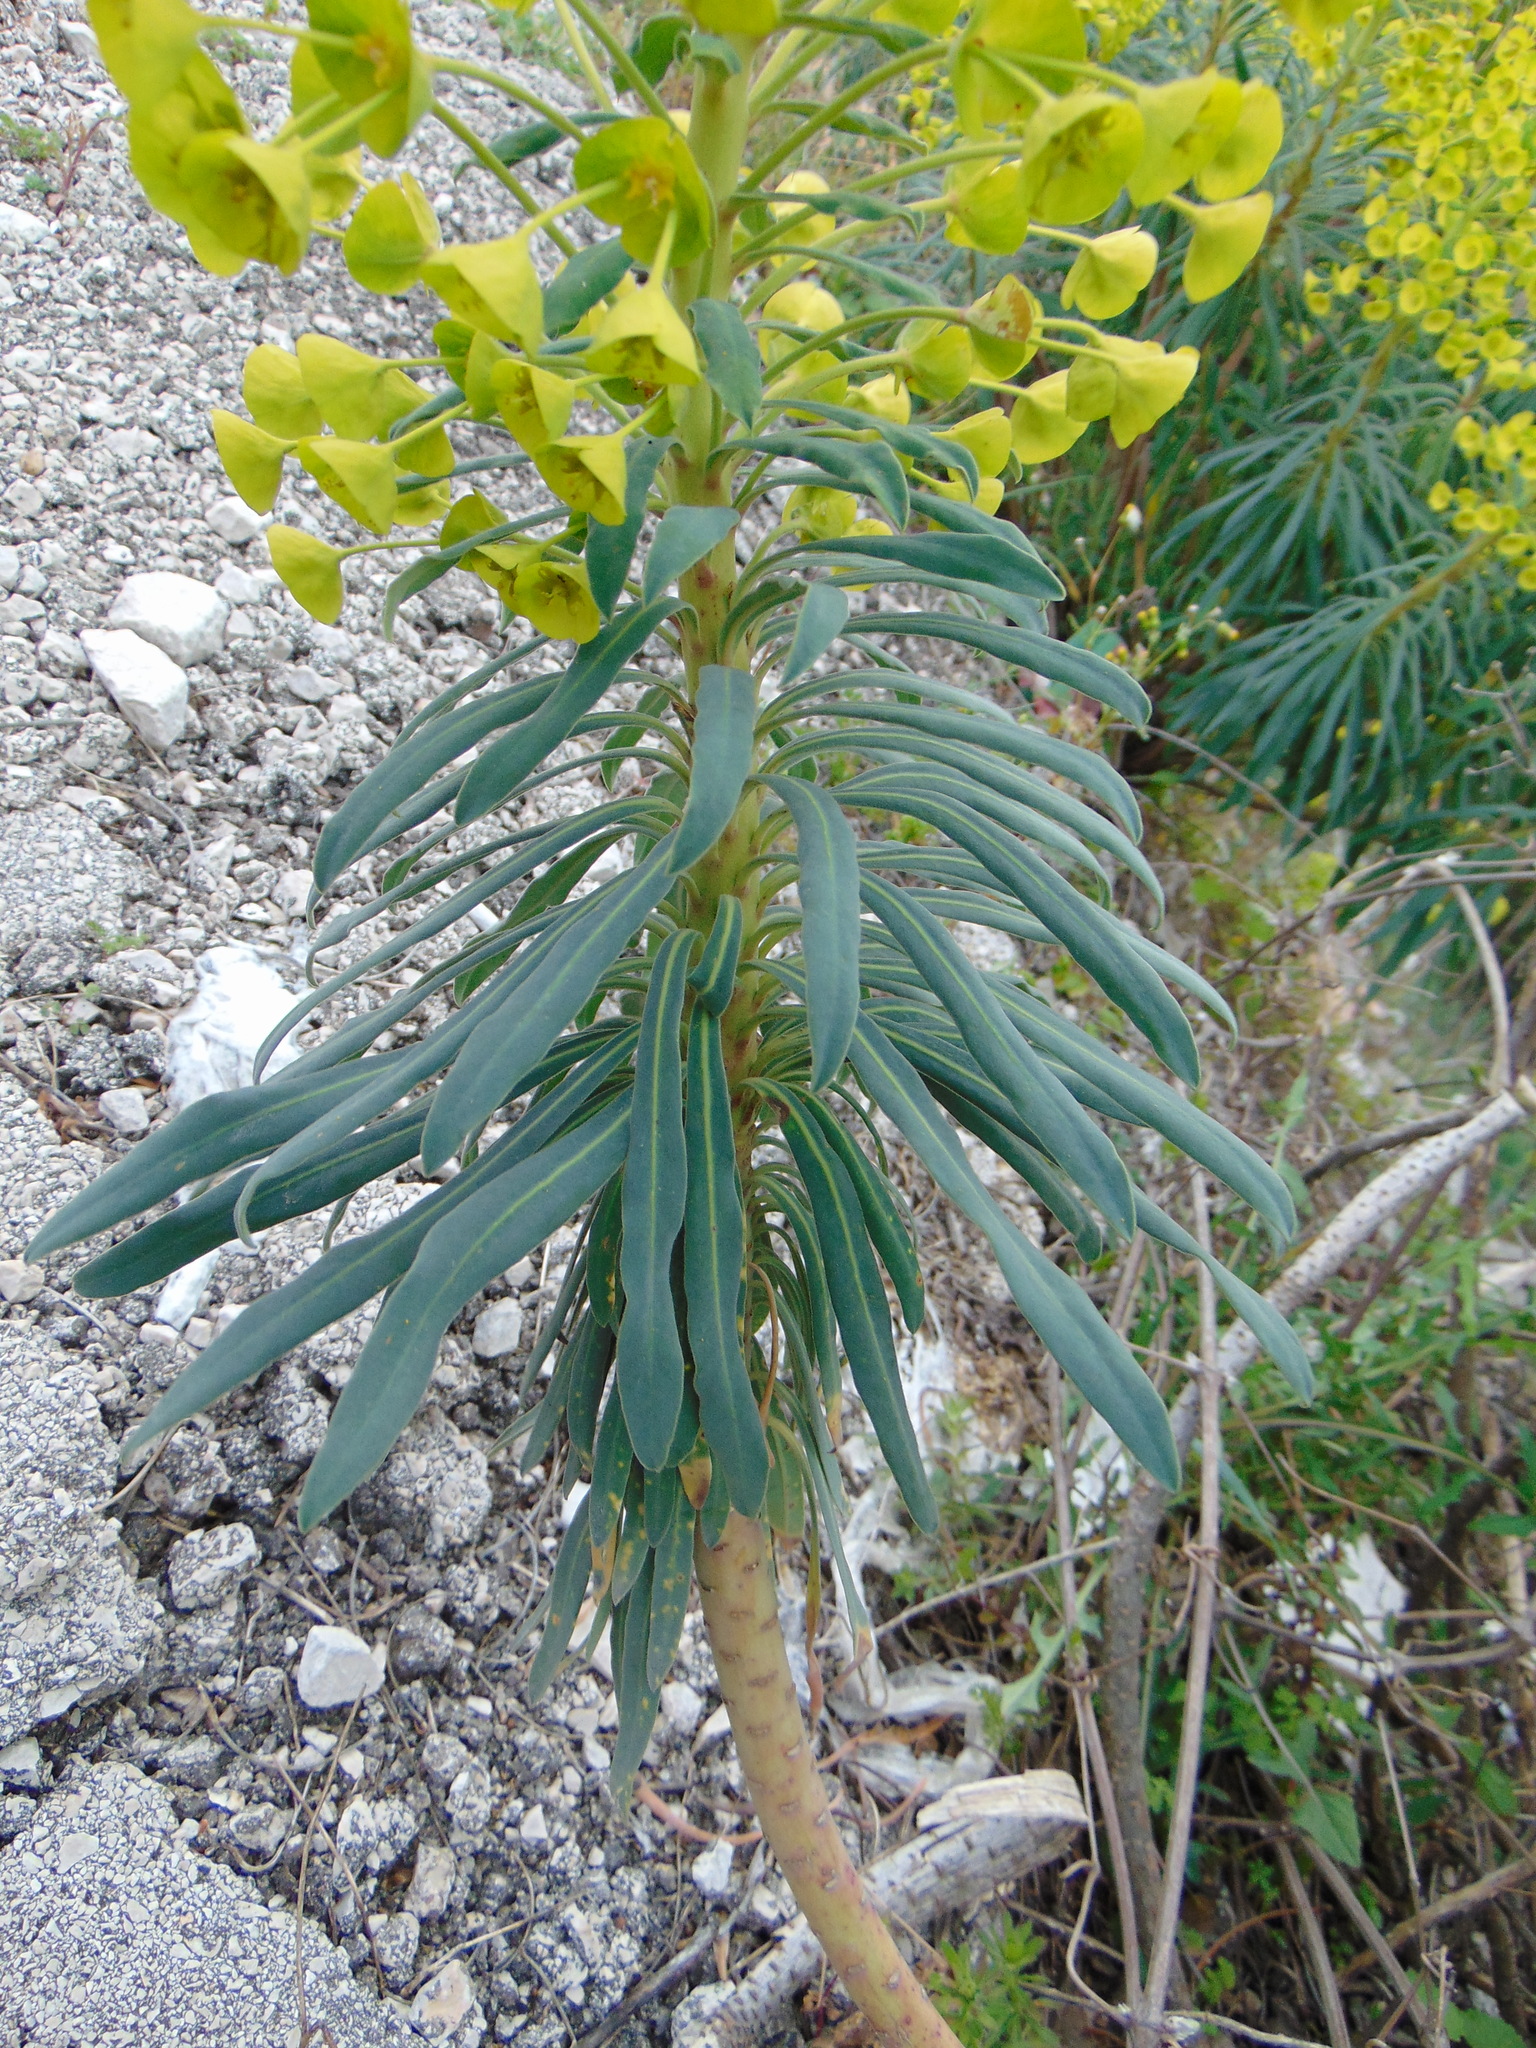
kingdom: Plantae
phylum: Tracheophyta
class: Magnoliopsida
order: Malpighiales
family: Euphorbiaceae
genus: Euphorbia
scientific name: Euphorbia characias
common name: Mediterranean spurge
